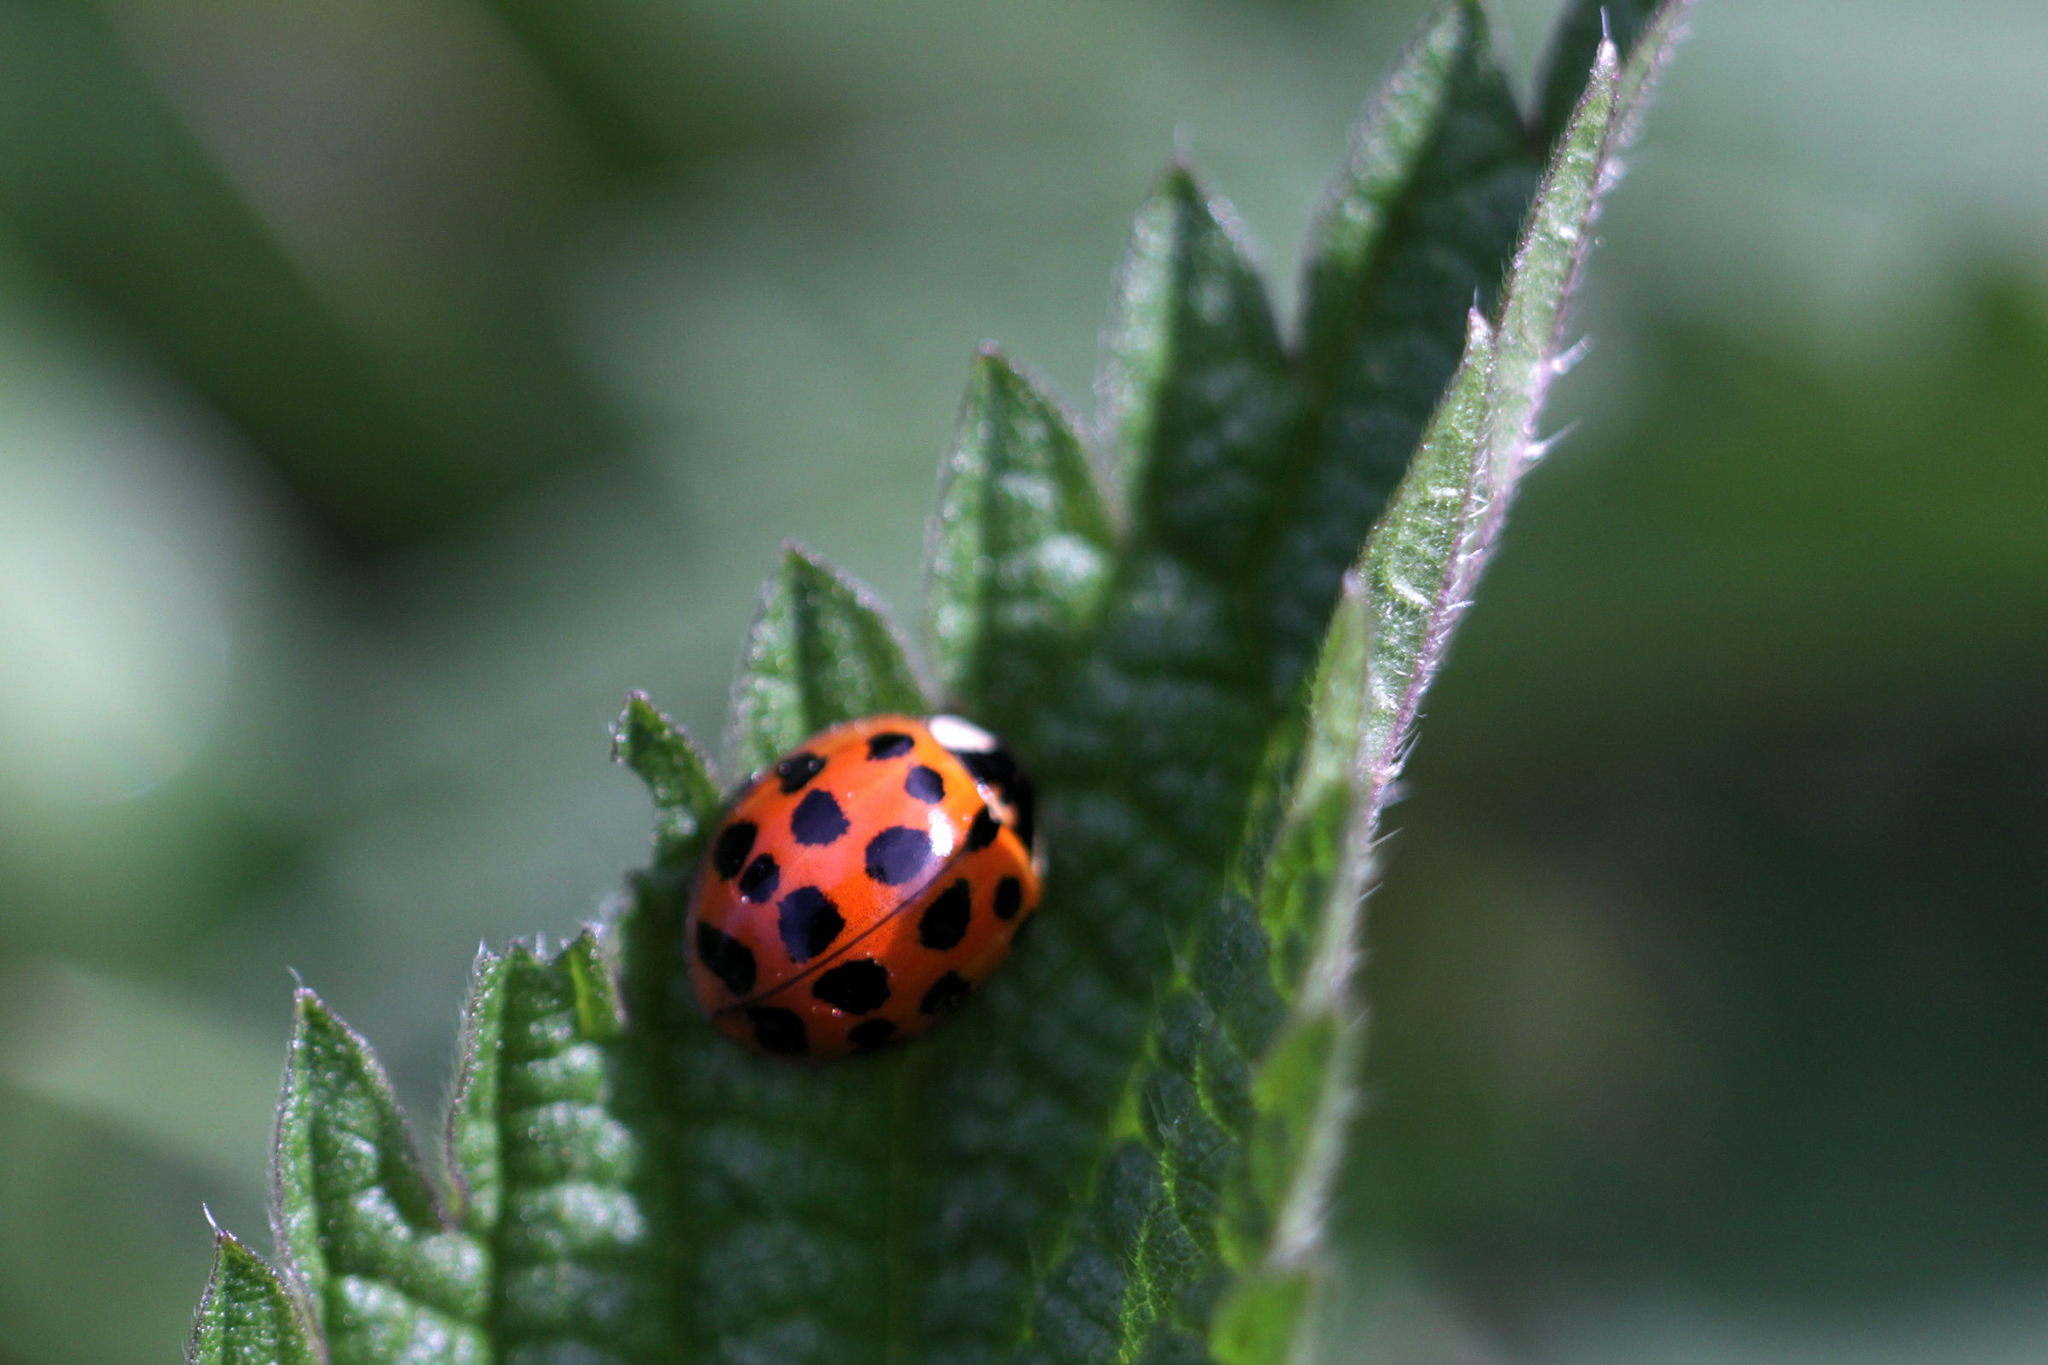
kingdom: Animalia
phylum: Arthropoda
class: Insecta
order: Coleoptera
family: Coccinellidae
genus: Harmonia
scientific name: Harmonia axyridis
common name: Harlequin ladybird
